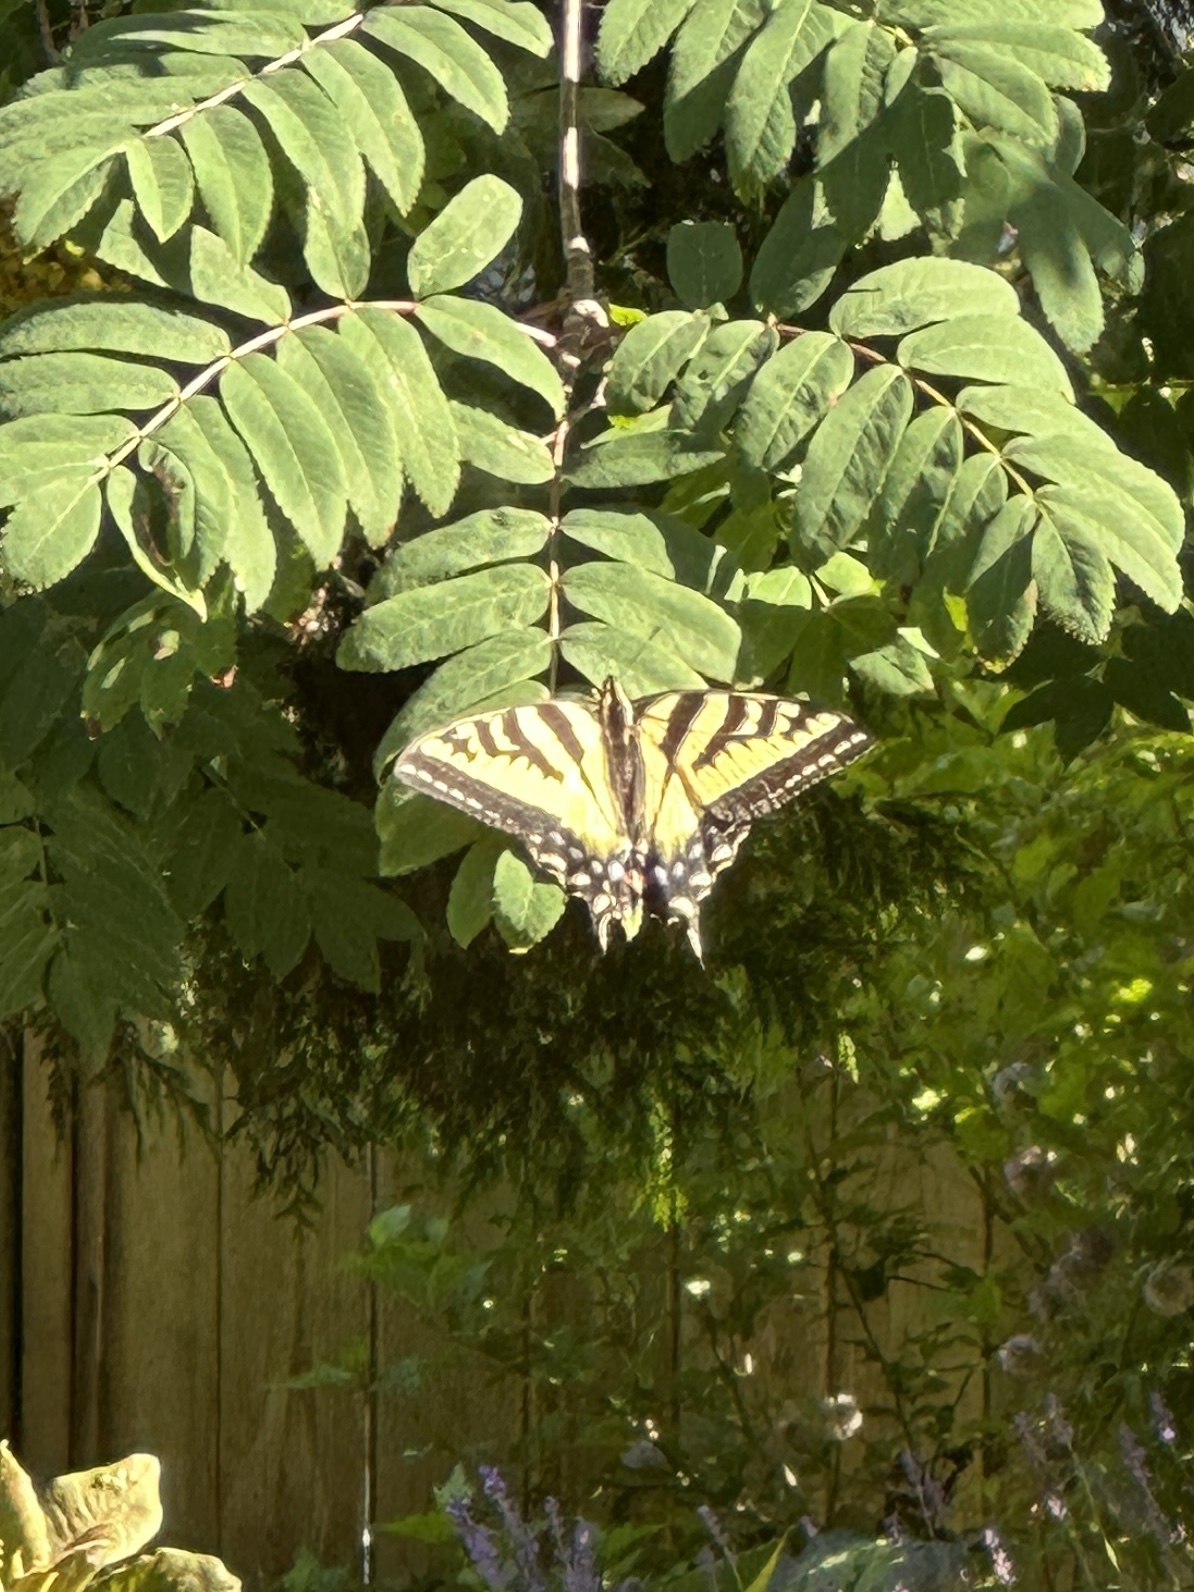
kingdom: Animalia
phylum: Arthropoda
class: Insecta
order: Lepidoptera
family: Papilionidae
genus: Papilio
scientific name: Papilio rutulus
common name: Western tiger swallowtail
